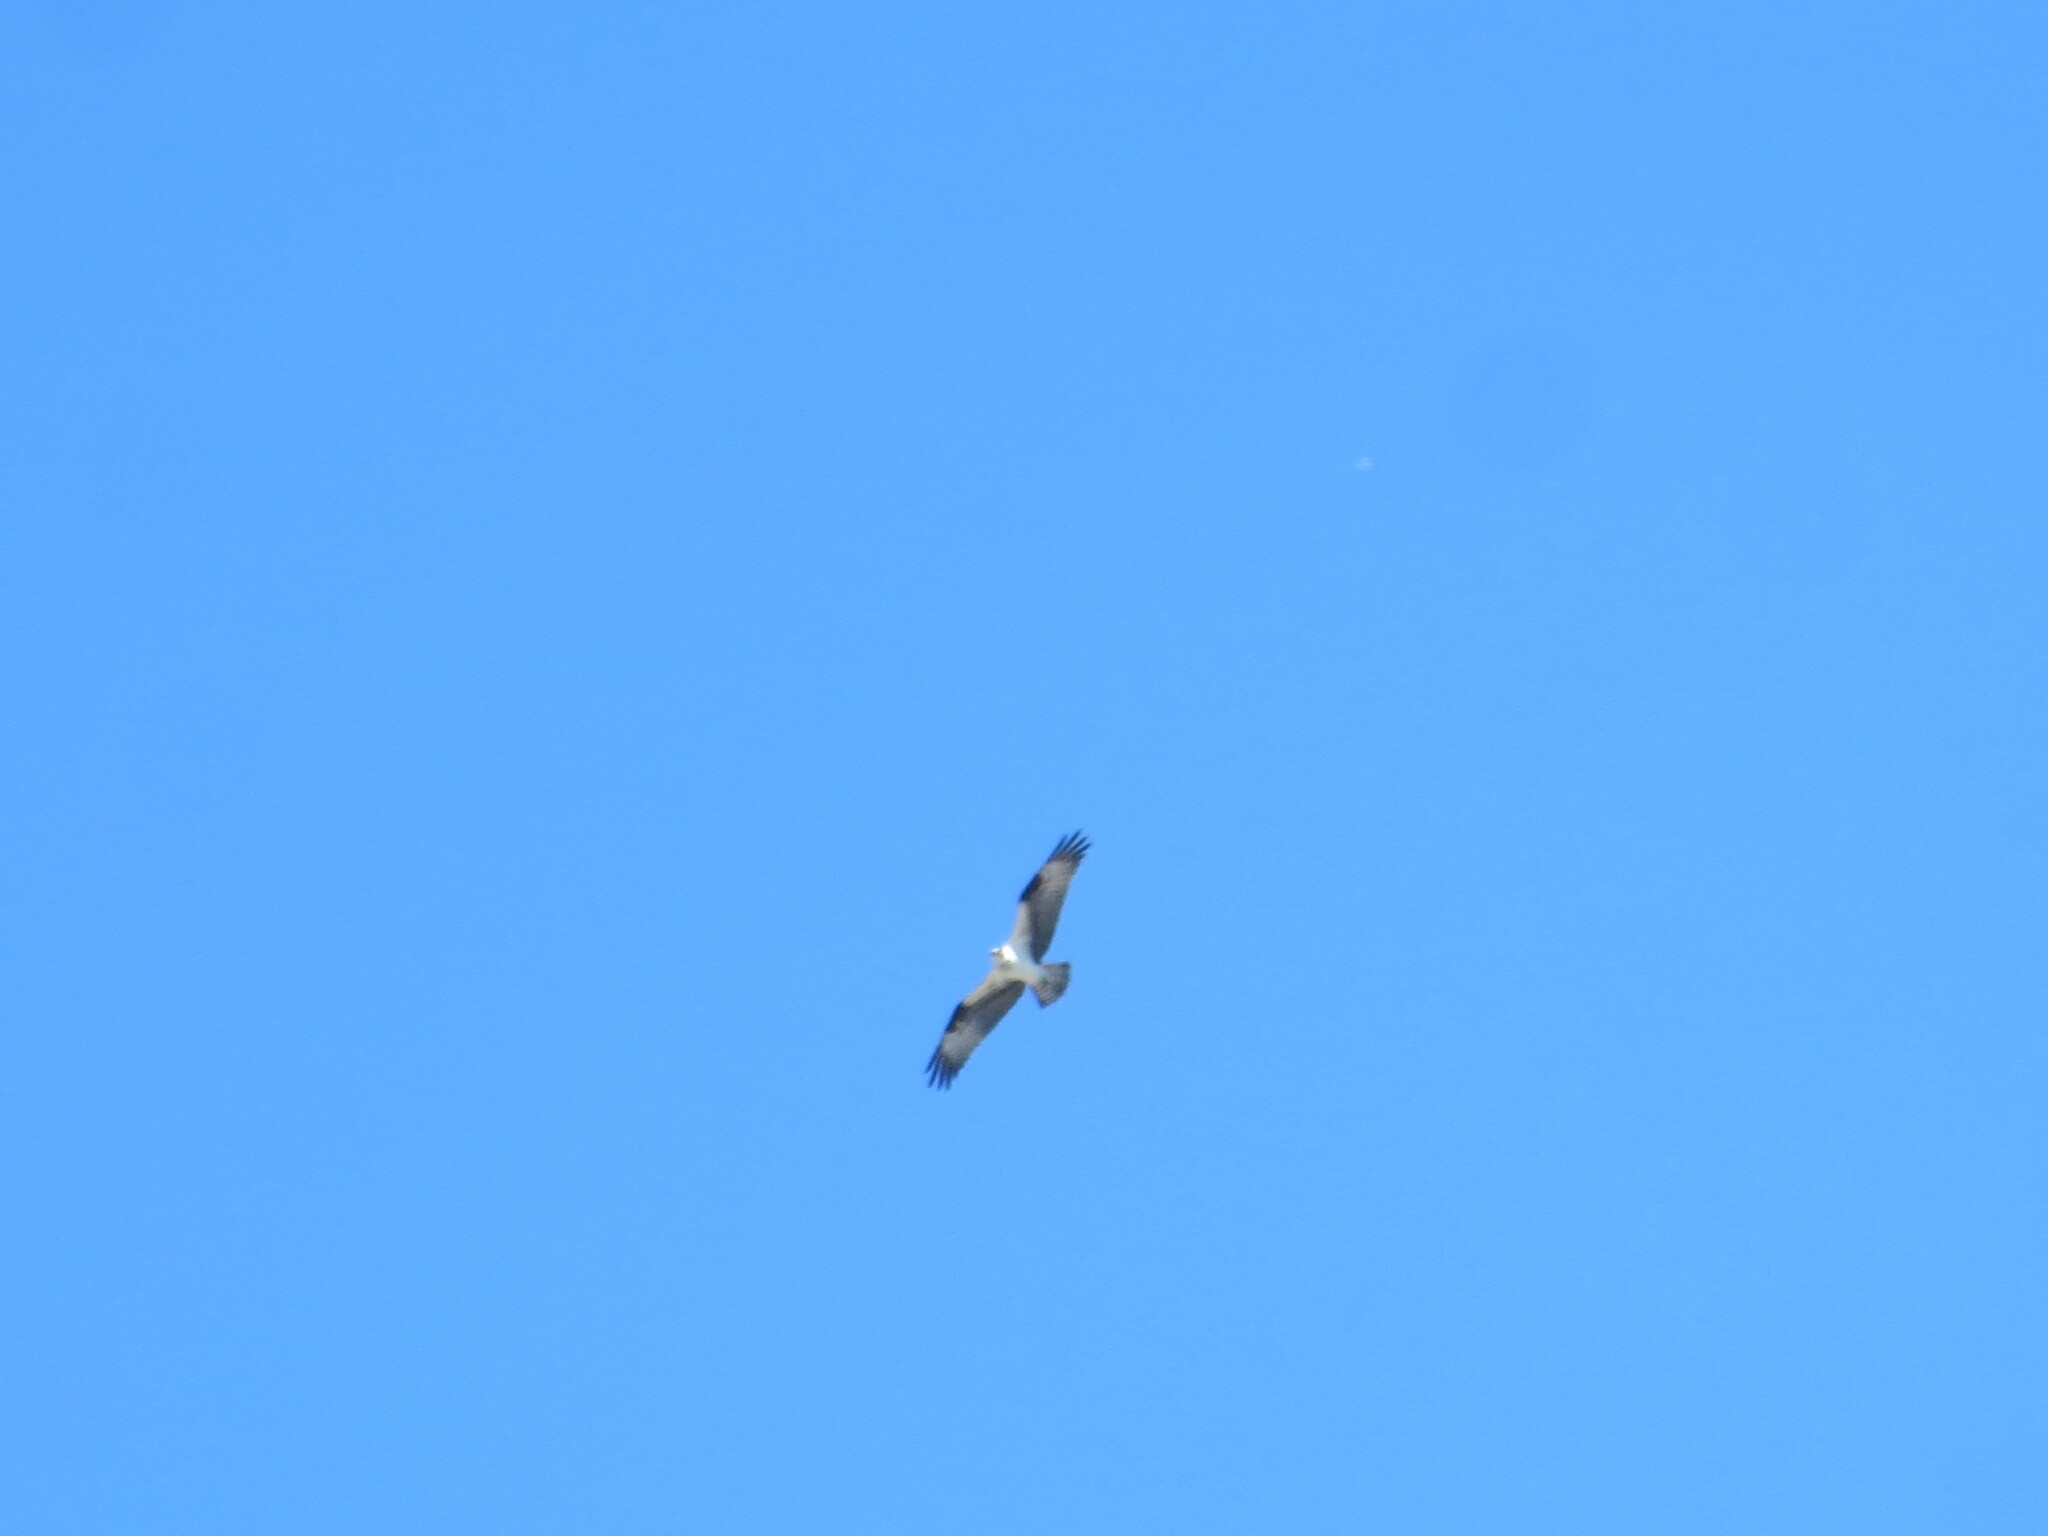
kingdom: Animalia
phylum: Chordata
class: Aves
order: Accipitriformes
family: Pandionidae
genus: Pandion
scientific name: Pandion haliaetus
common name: Osprey
